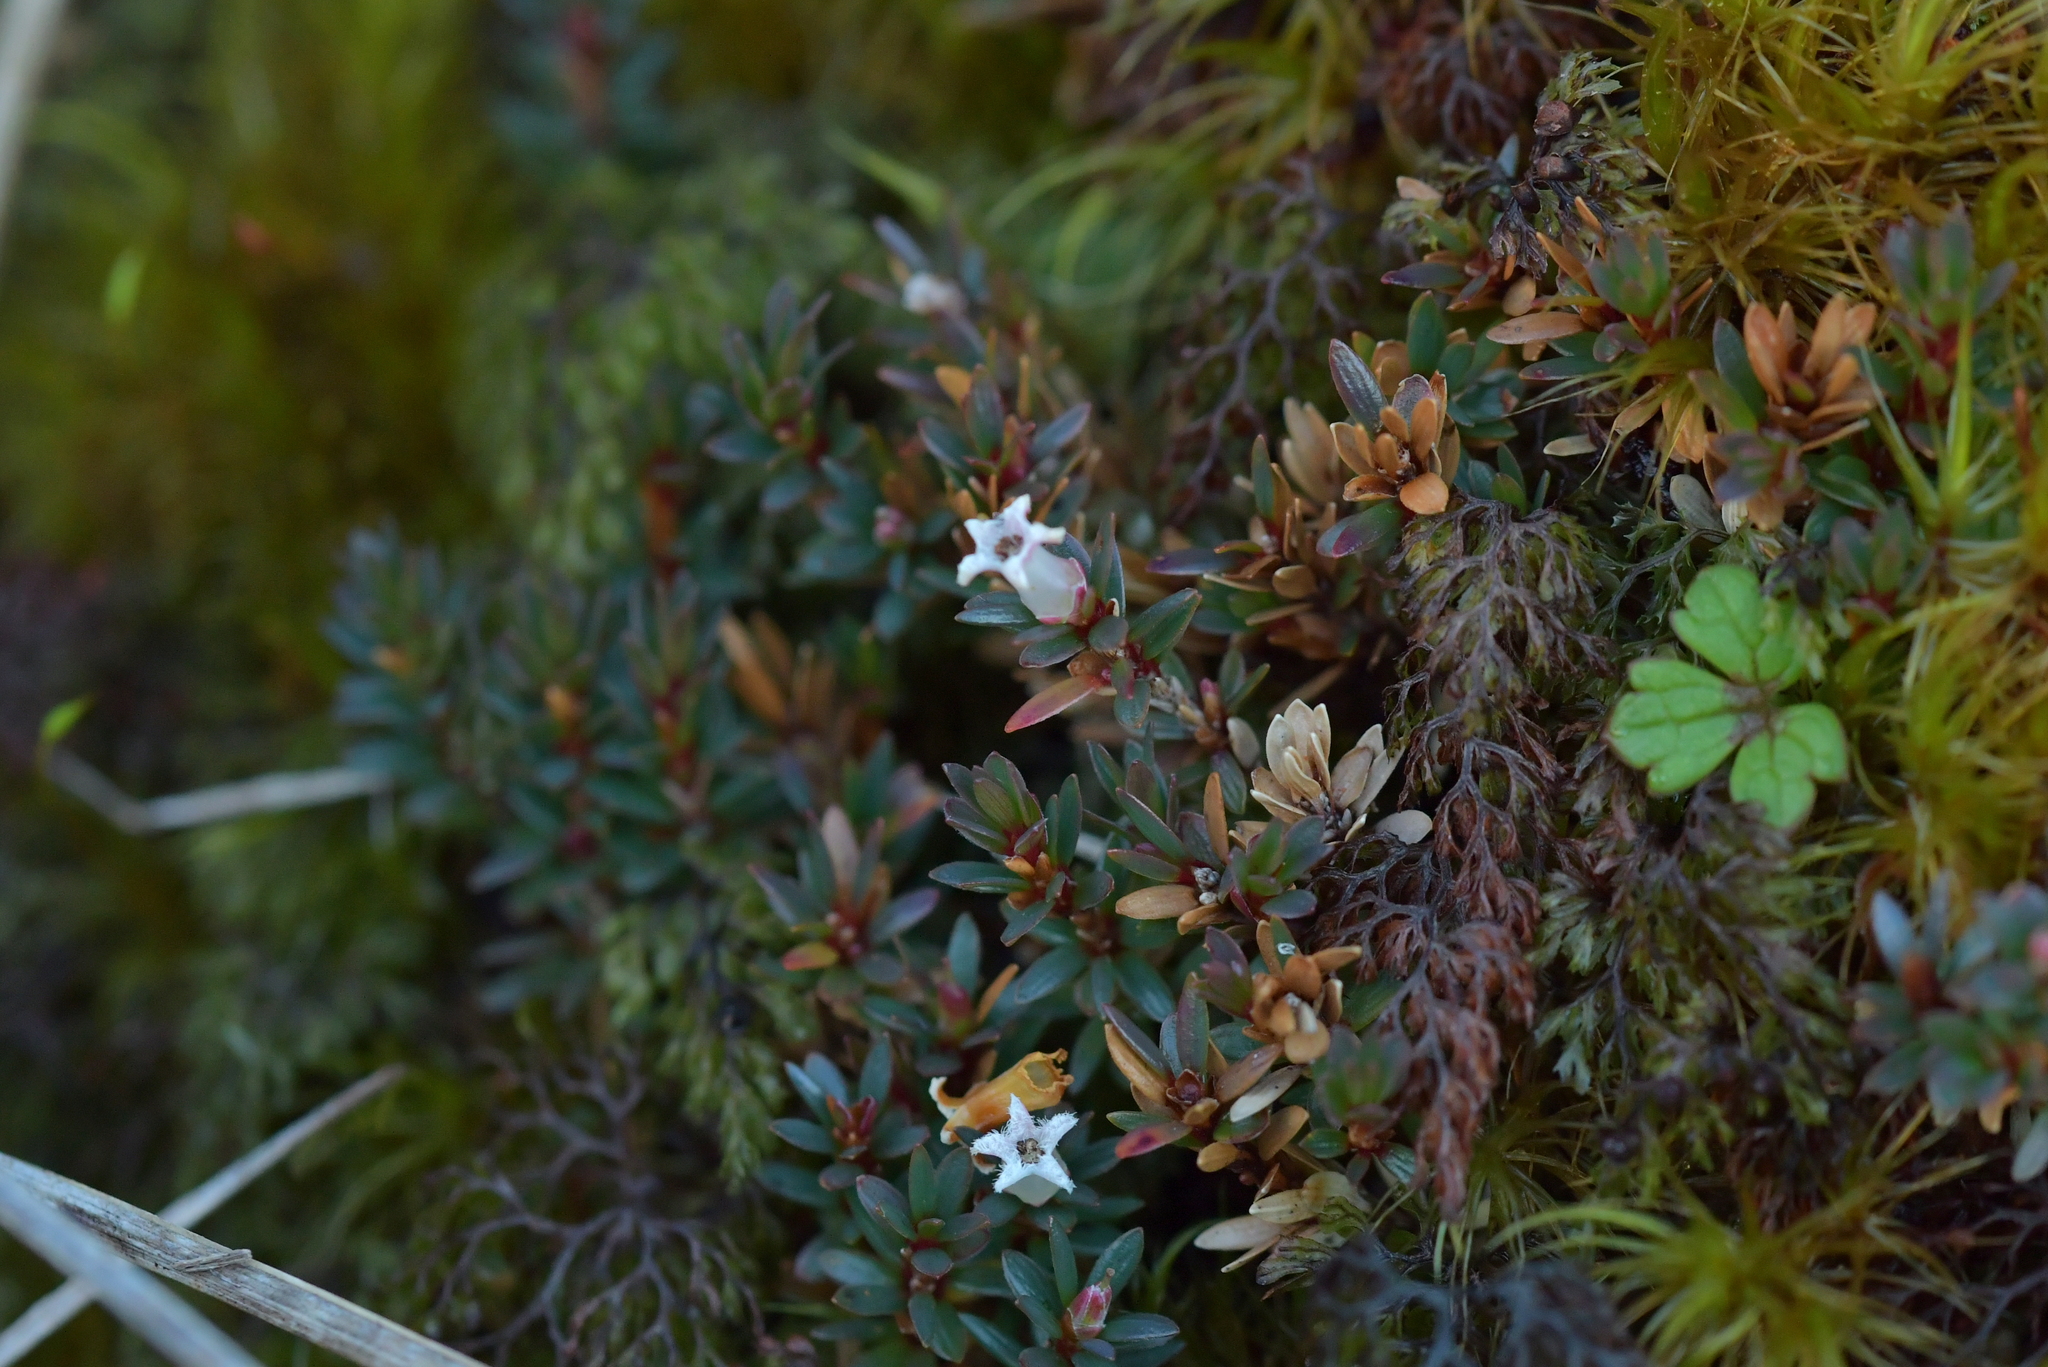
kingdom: Plantae
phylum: Tracheophyta
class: Magnoliopsida
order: Ericales
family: Ericaceae
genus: Pentachondra
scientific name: Pentachondra pumila
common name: Carpet-heath
